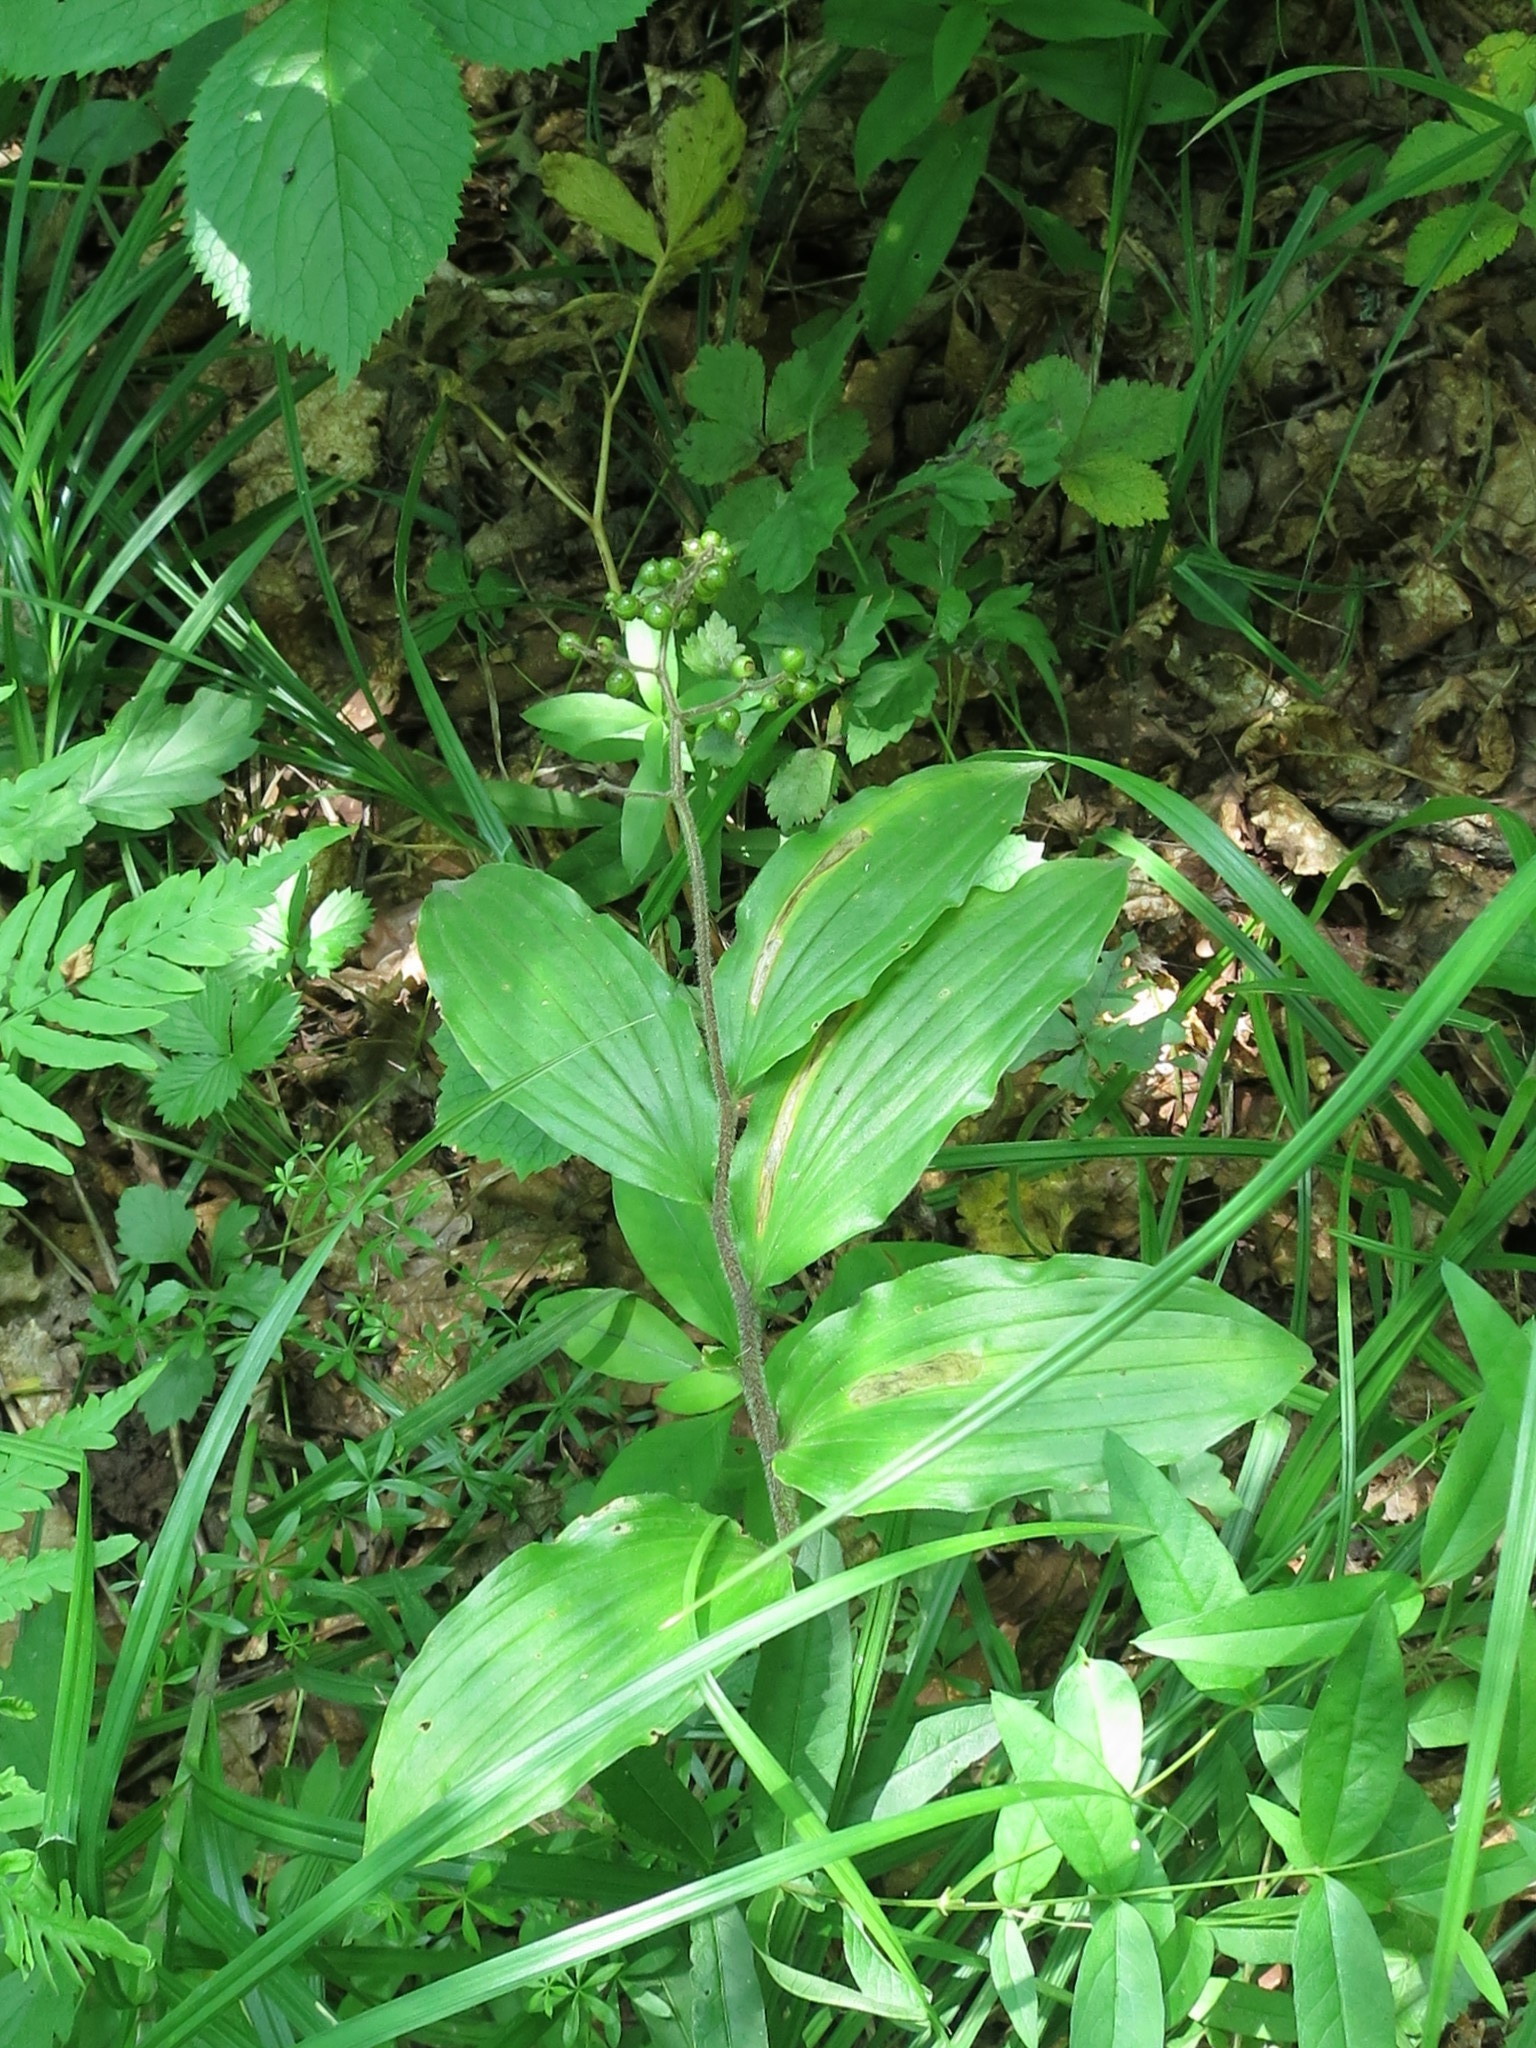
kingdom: Plantae
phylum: Tracheophyta
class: Liliopsida
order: Asparagales
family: Asparagaceae
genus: Maianthemum
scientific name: Maianthemum japonicum
